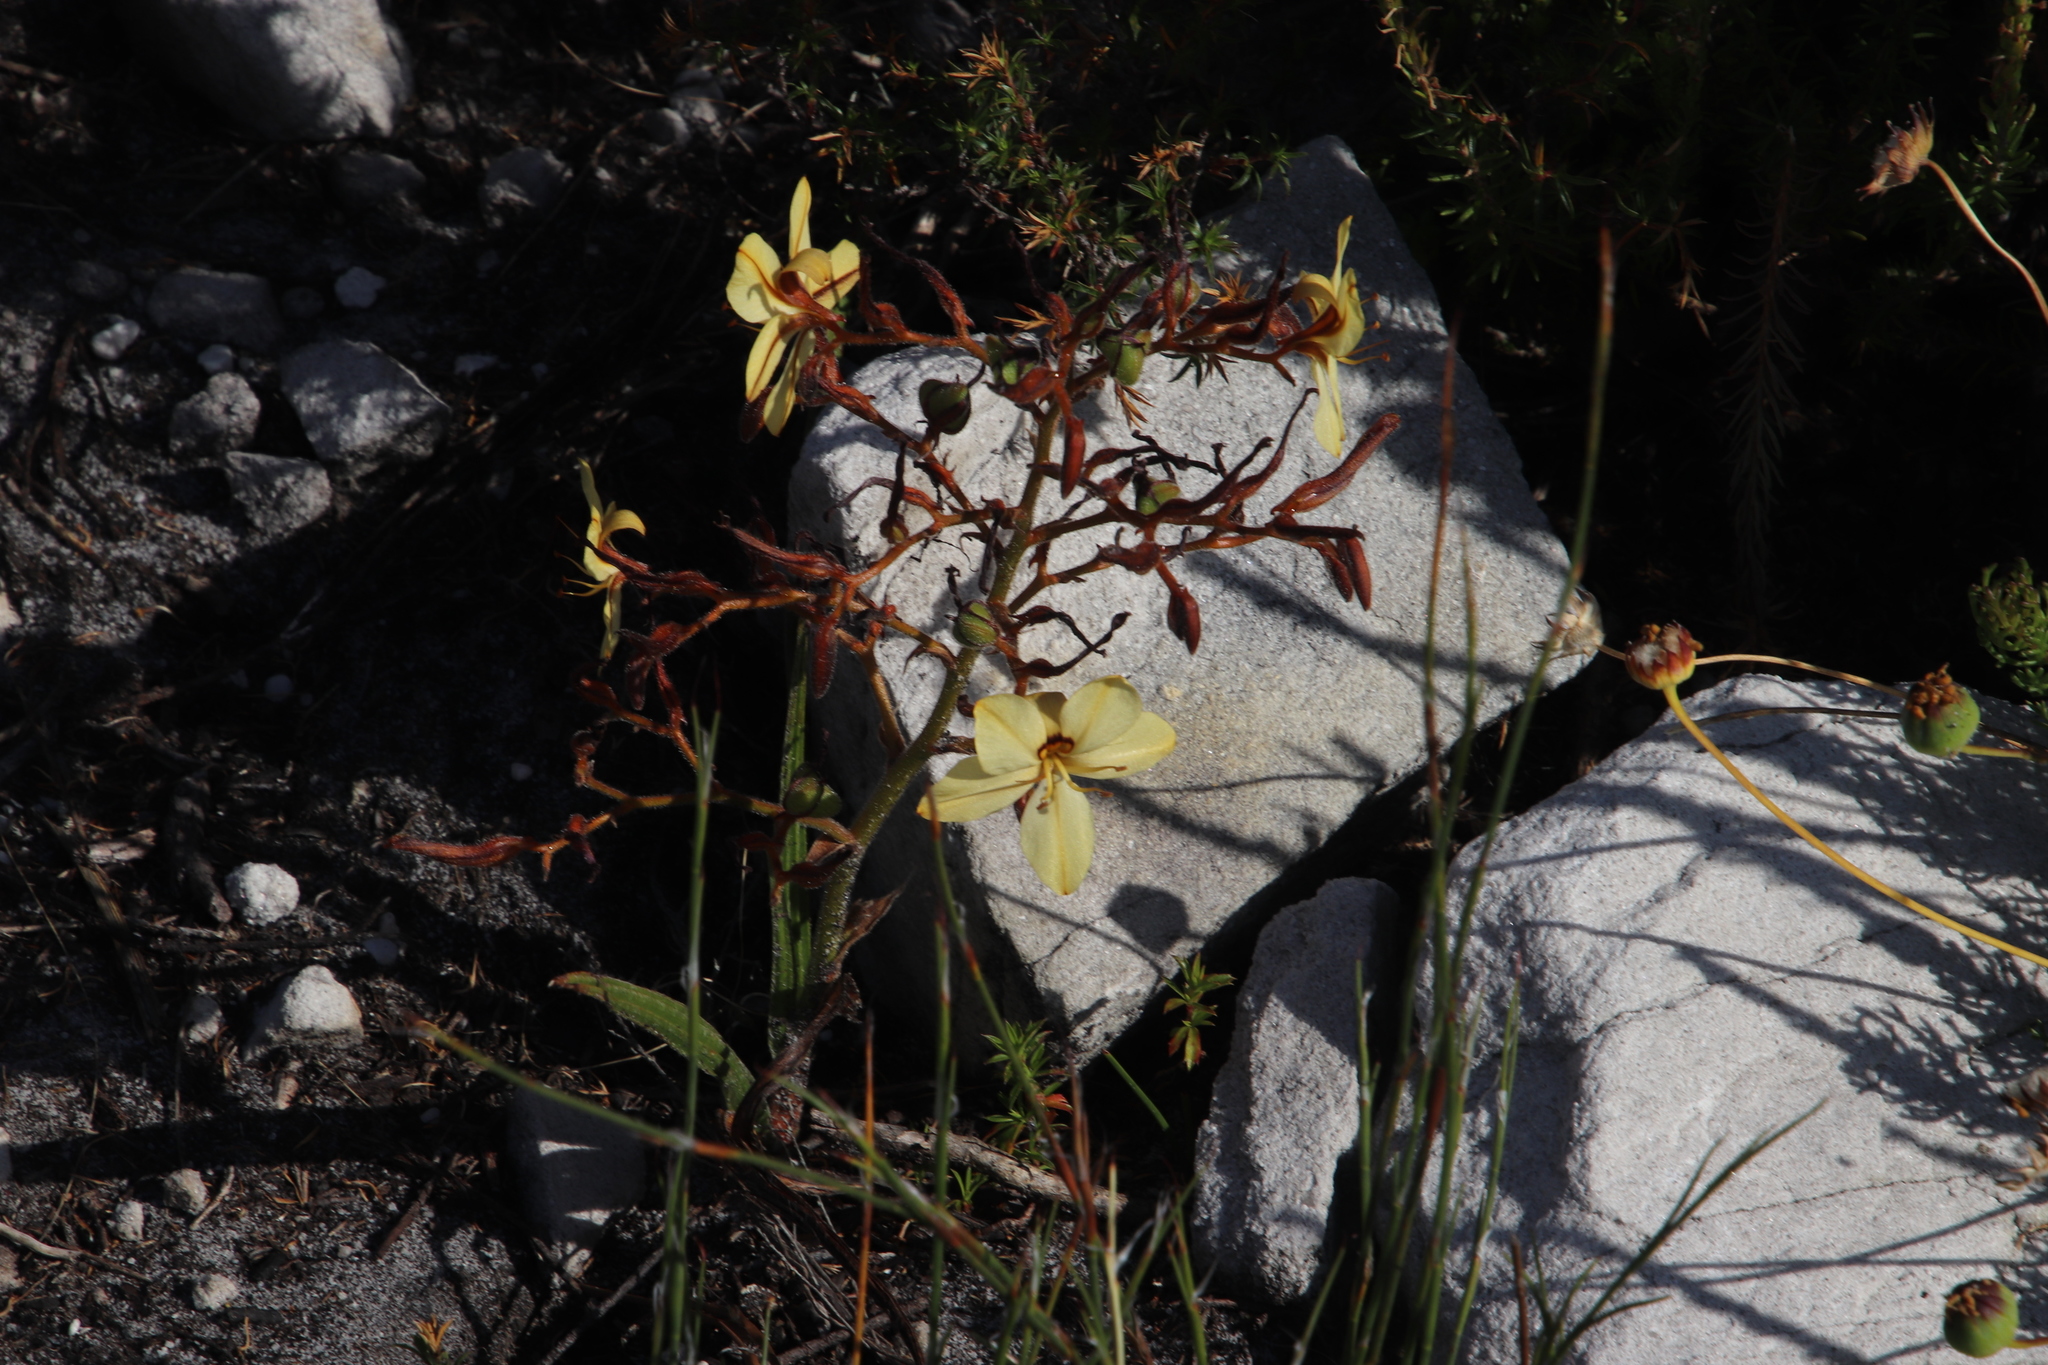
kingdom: Plantae
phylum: Tracheophyta
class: Liliopsida
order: Commelinales
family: Haemodoraceae
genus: Wachendorfia
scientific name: Wachendorfia paniculata
